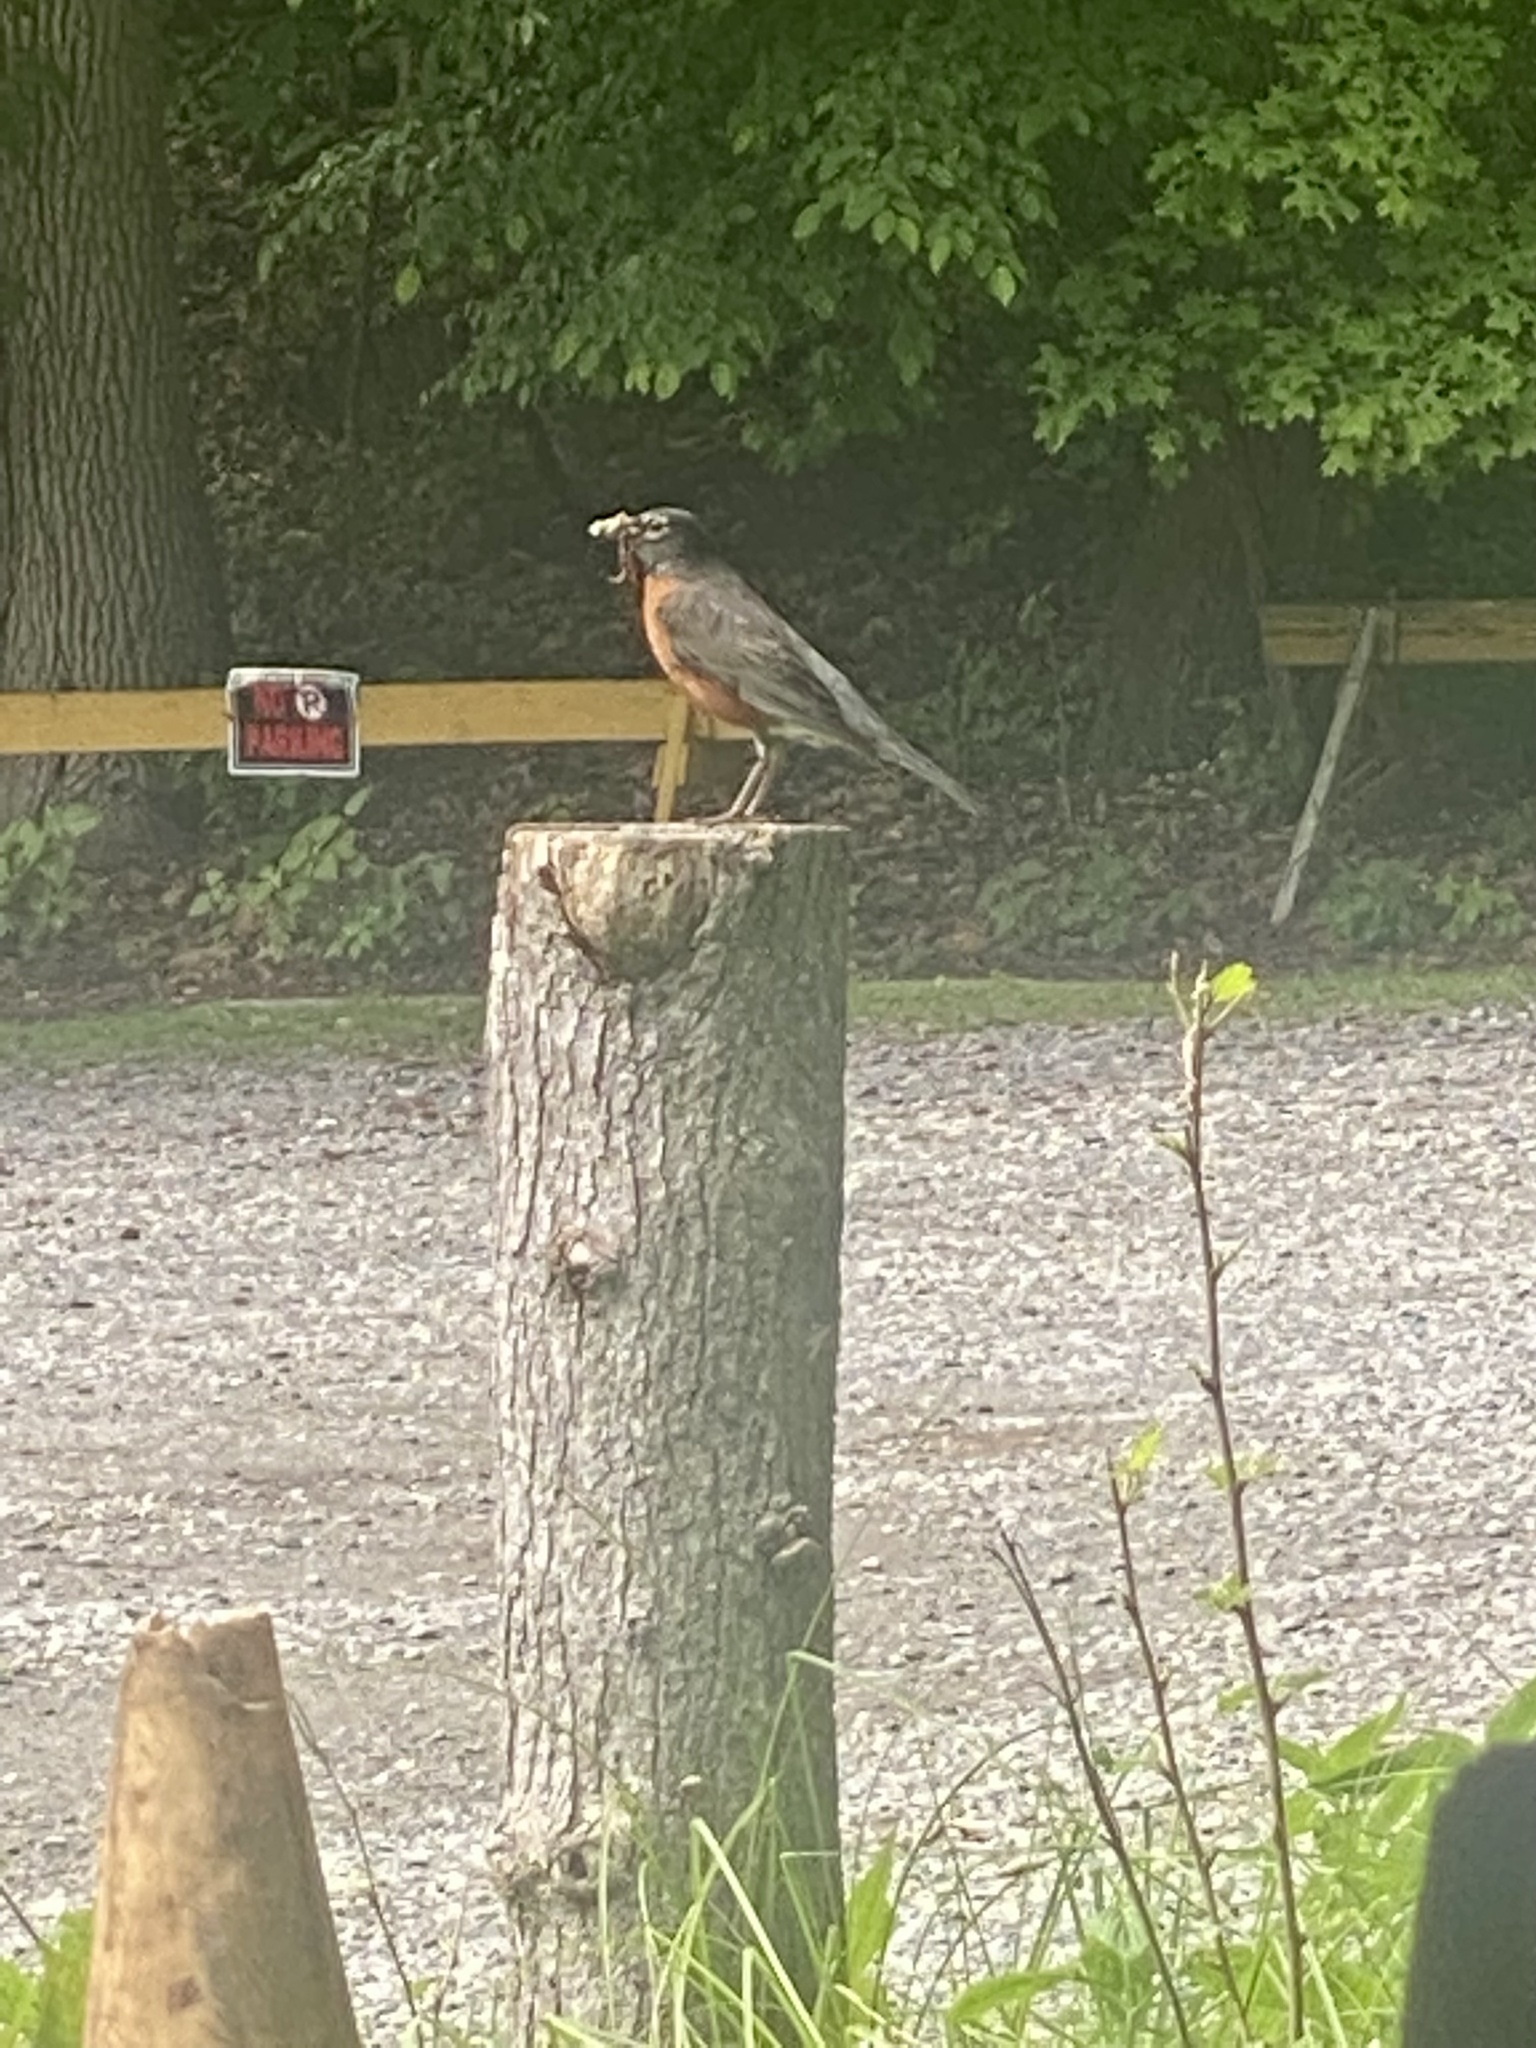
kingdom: Animalia
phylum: Chordata
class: Aves
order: Passeriformes
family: Turdidae
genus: Turdus
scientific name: Turdus migratorius
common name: American robin
